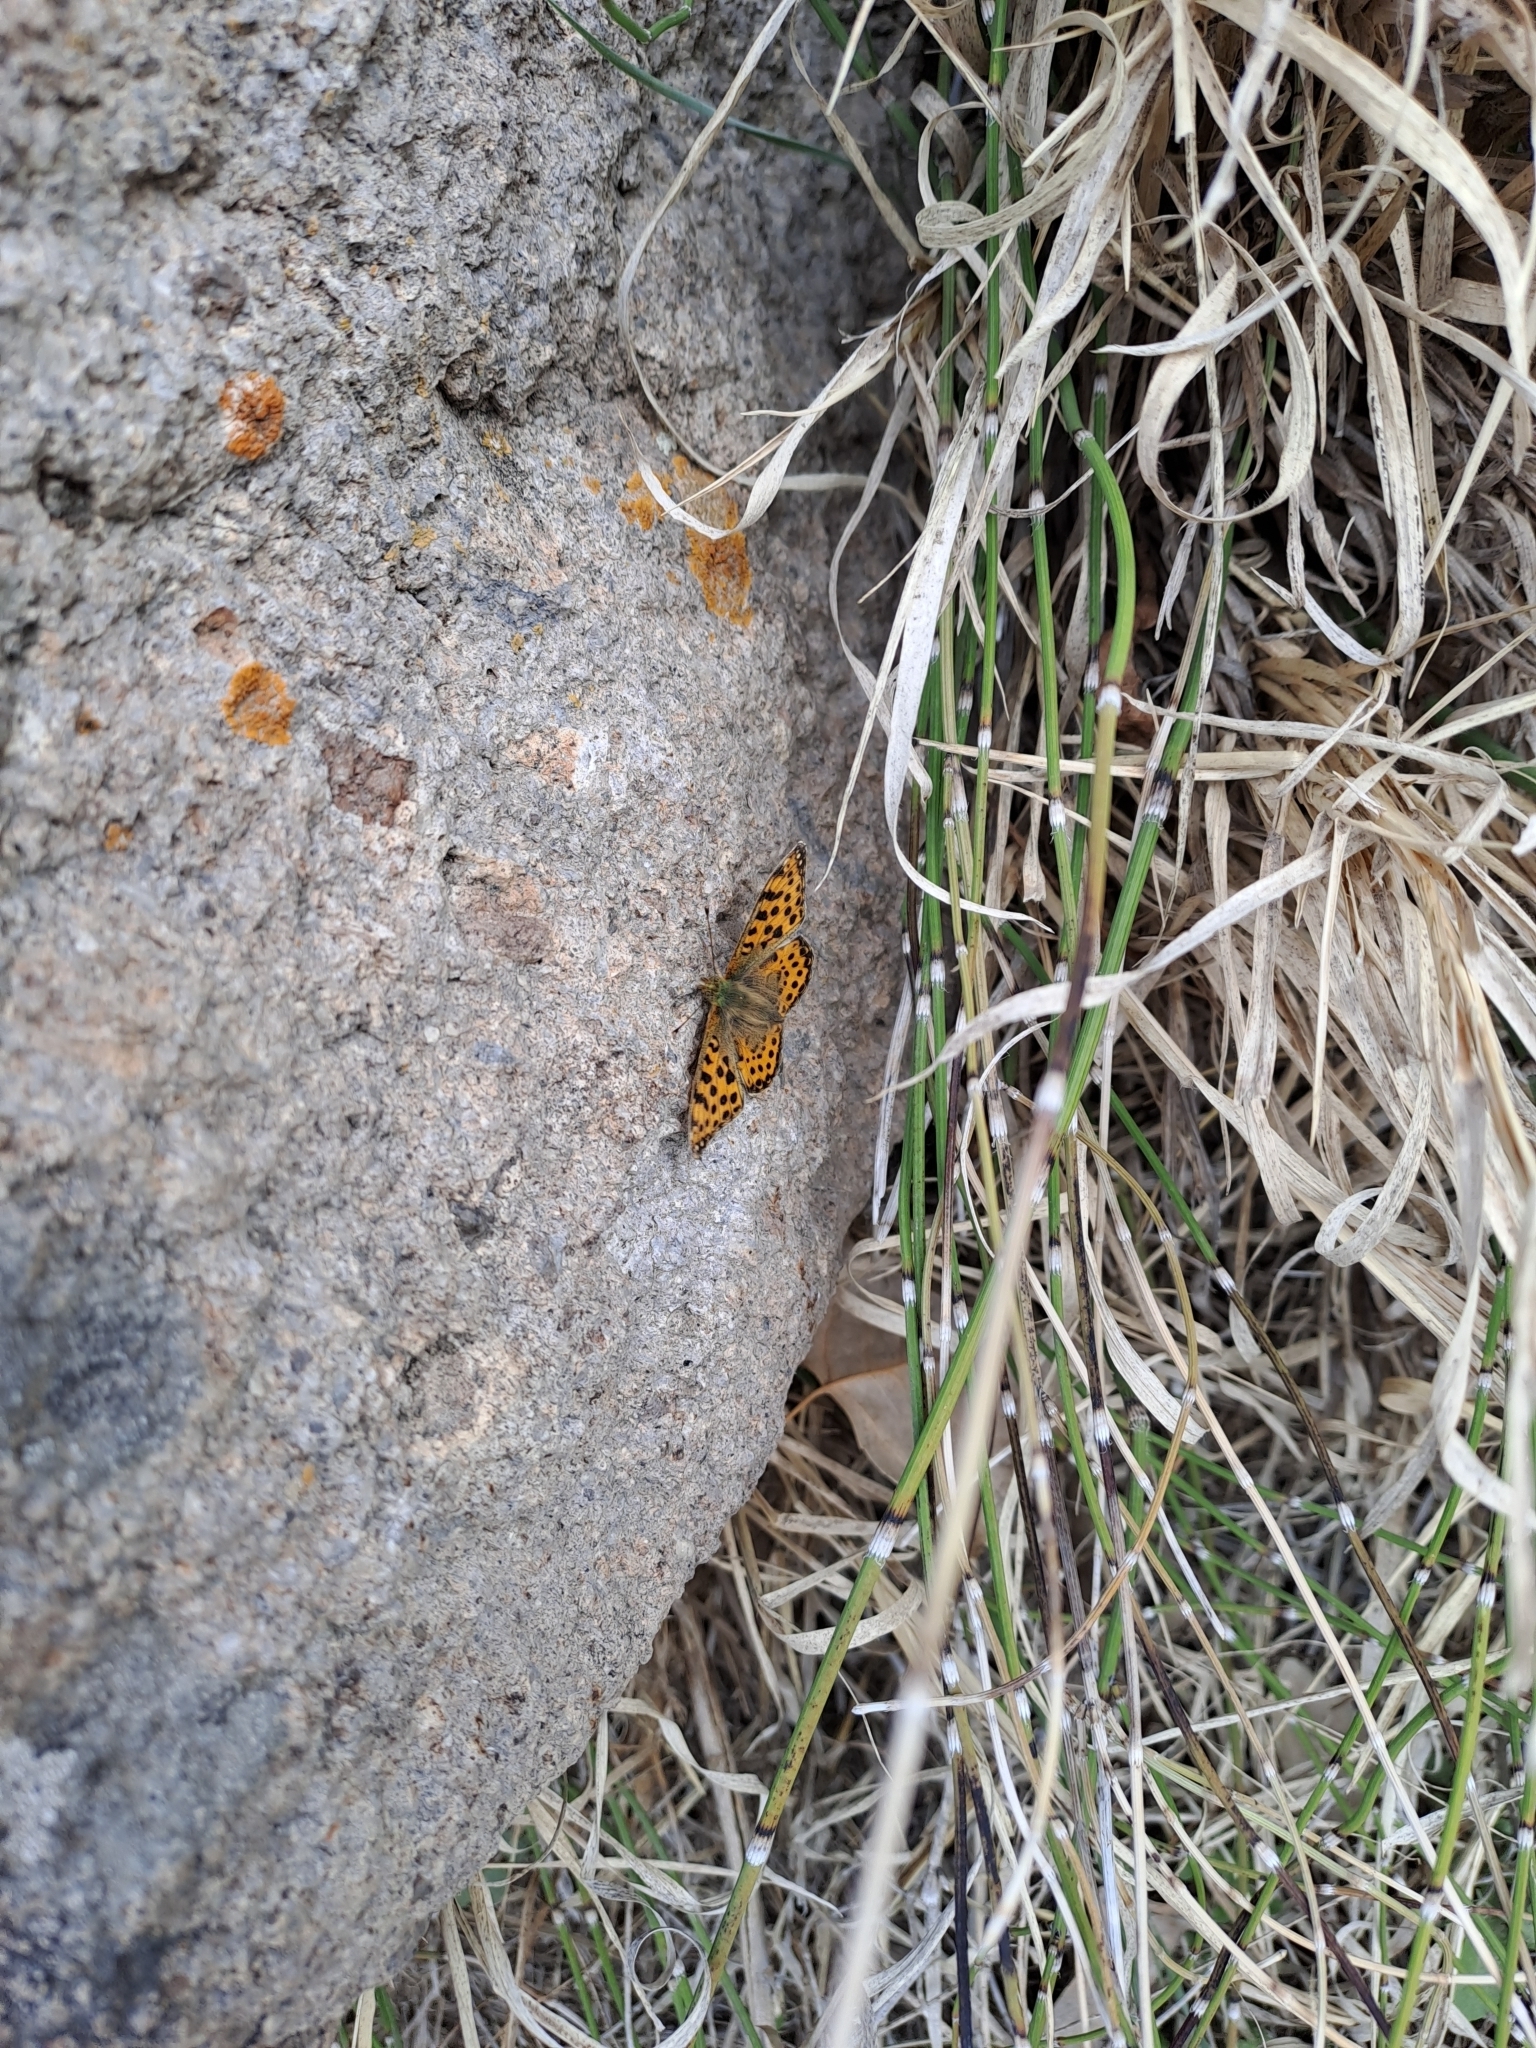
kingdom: Animalia
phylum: Arthropoda
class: Insecta
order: Lepidoptera
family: Nymphalidae
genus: Issoria
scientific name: Issoria lathonia
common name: Queen of spain fritillary
